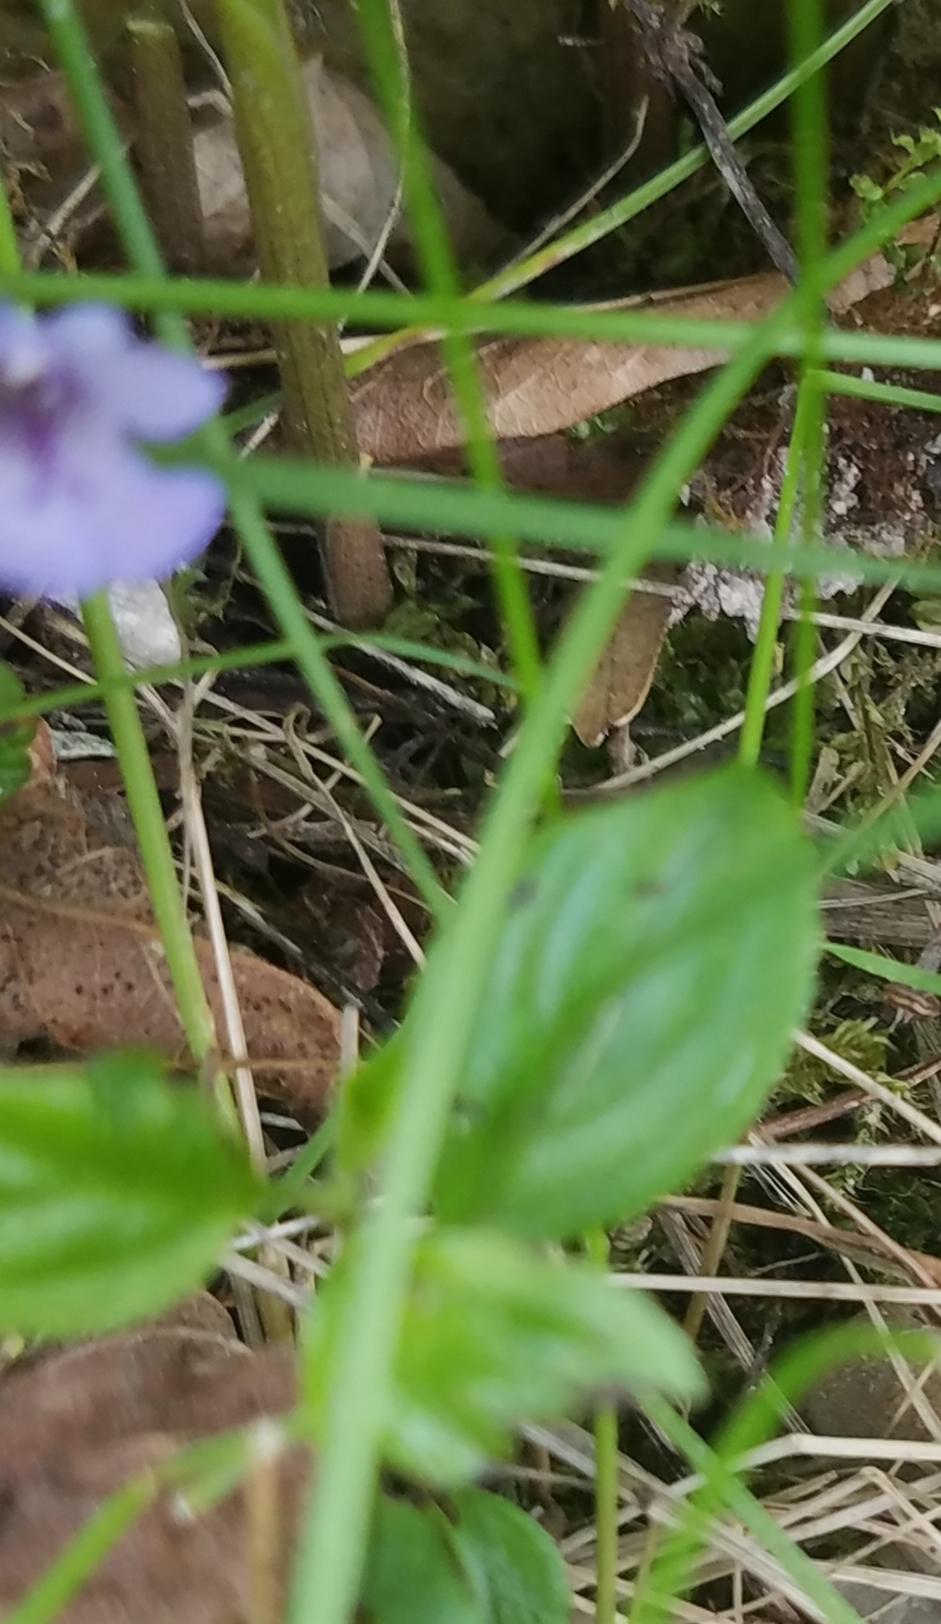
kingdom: Plantae
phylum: Tracheophyta
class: Magnoliopsida
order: Lamiales
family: Lamiaceae
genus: Glechoma
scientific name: Glechoma hederacea
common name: Ground ivy
